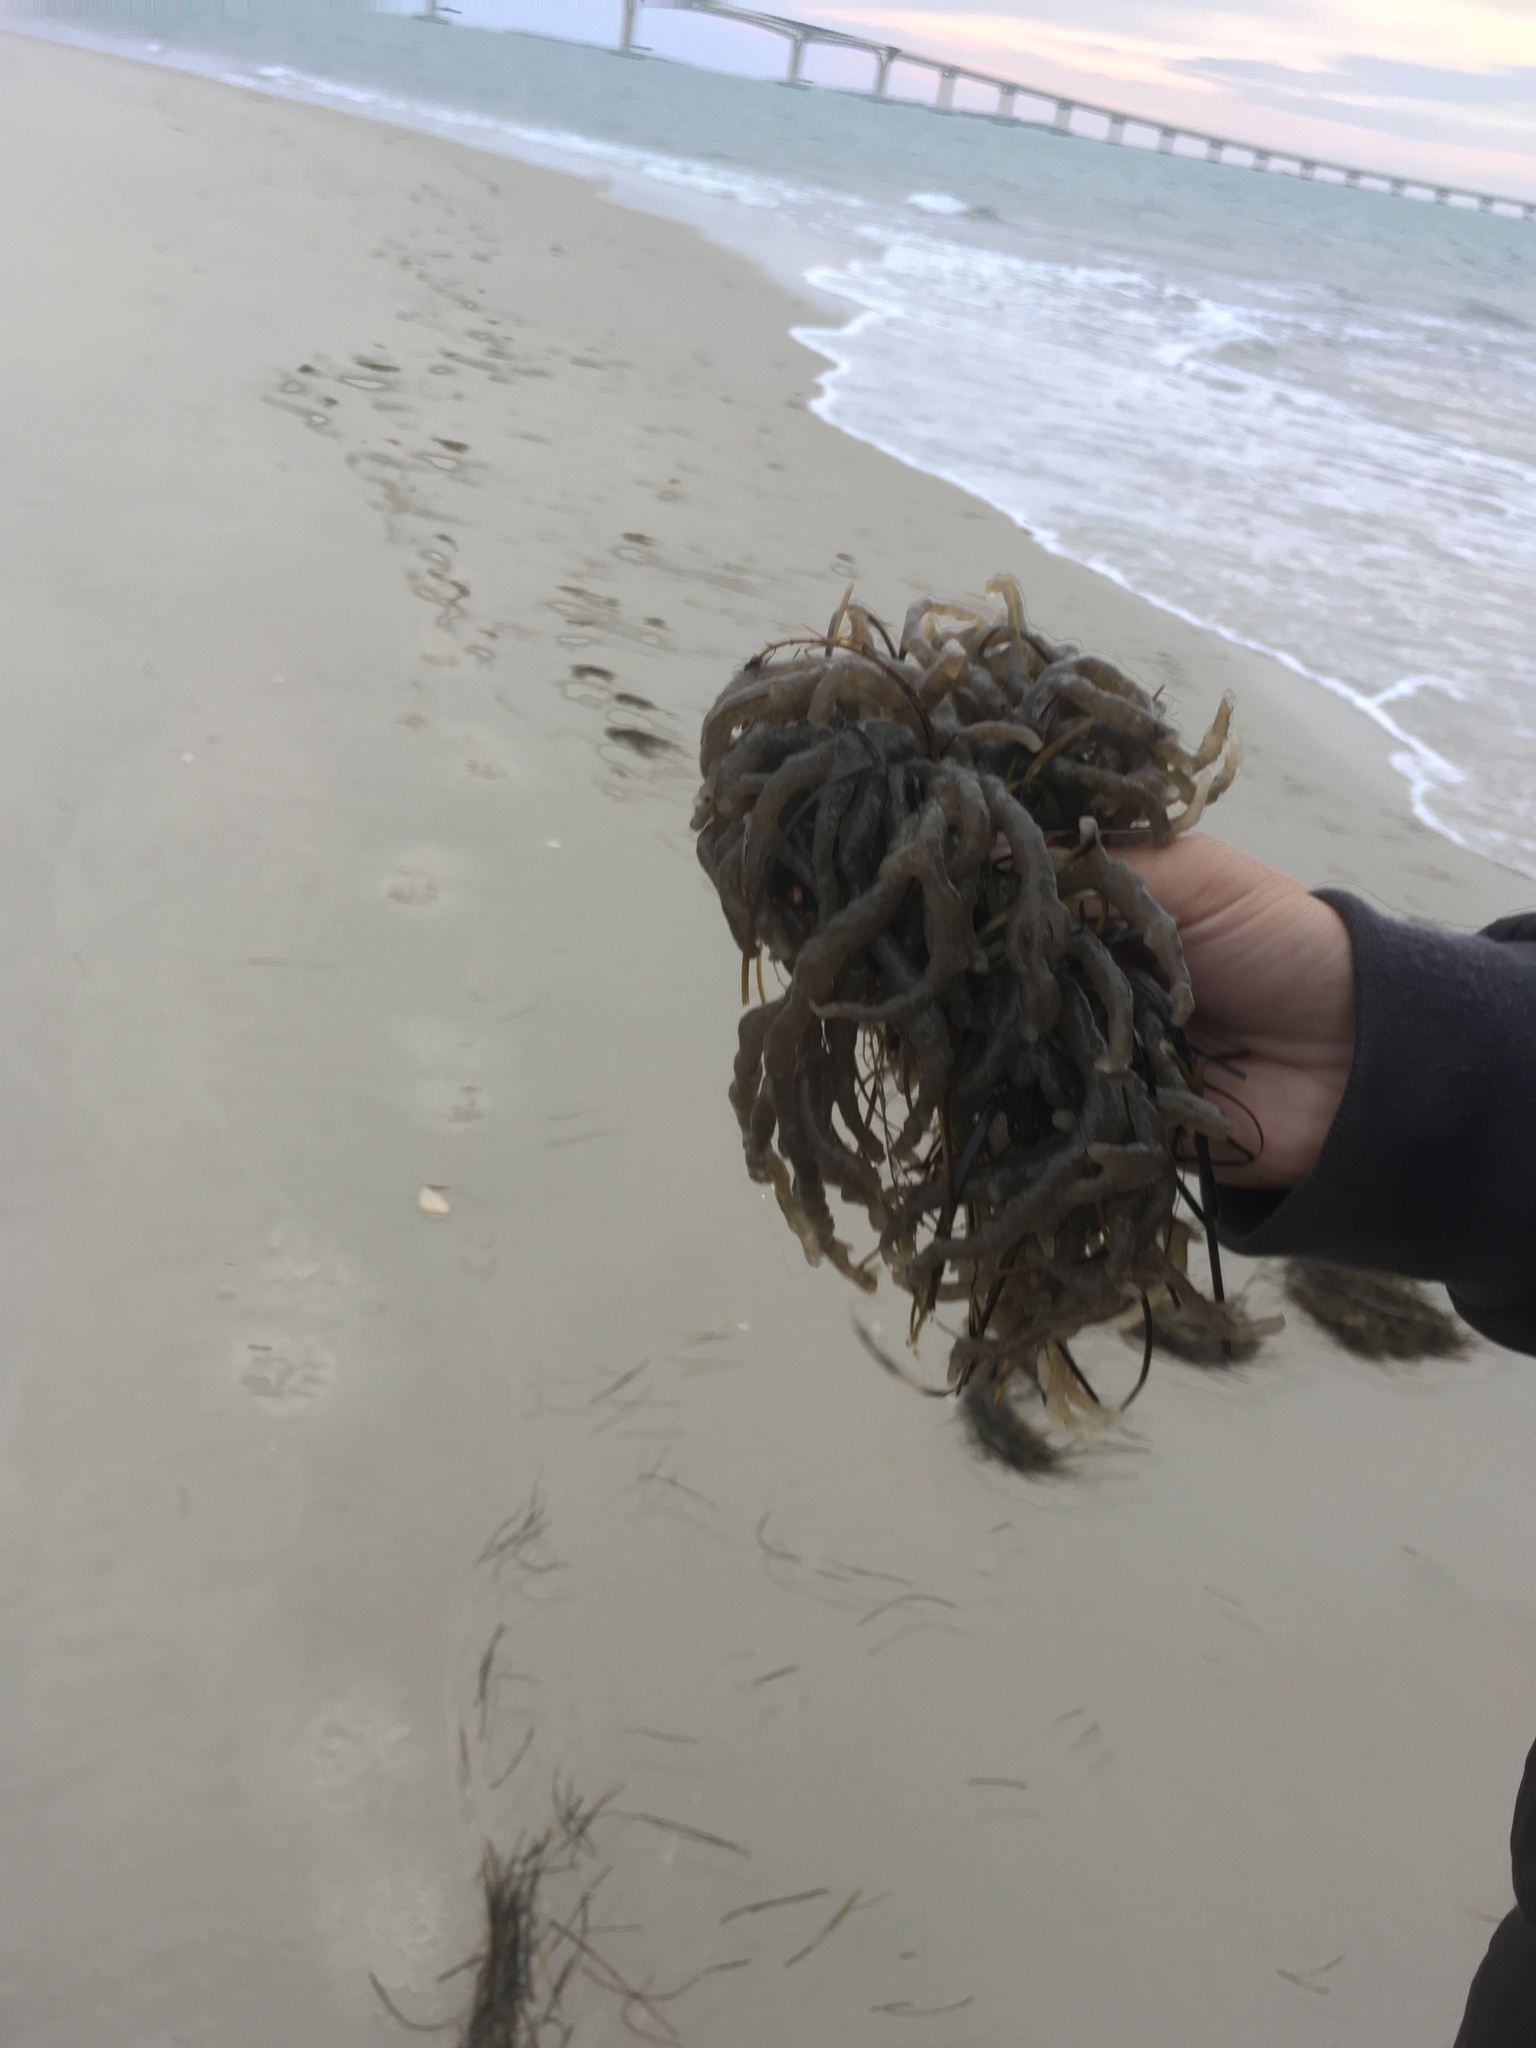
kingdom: Animalia
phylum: Bryozoa
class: Gymnolaemata
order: Ctenostomatida
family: Alcyonidiidae
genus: Alcyonidium
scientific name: Alcyonidium hauffi
